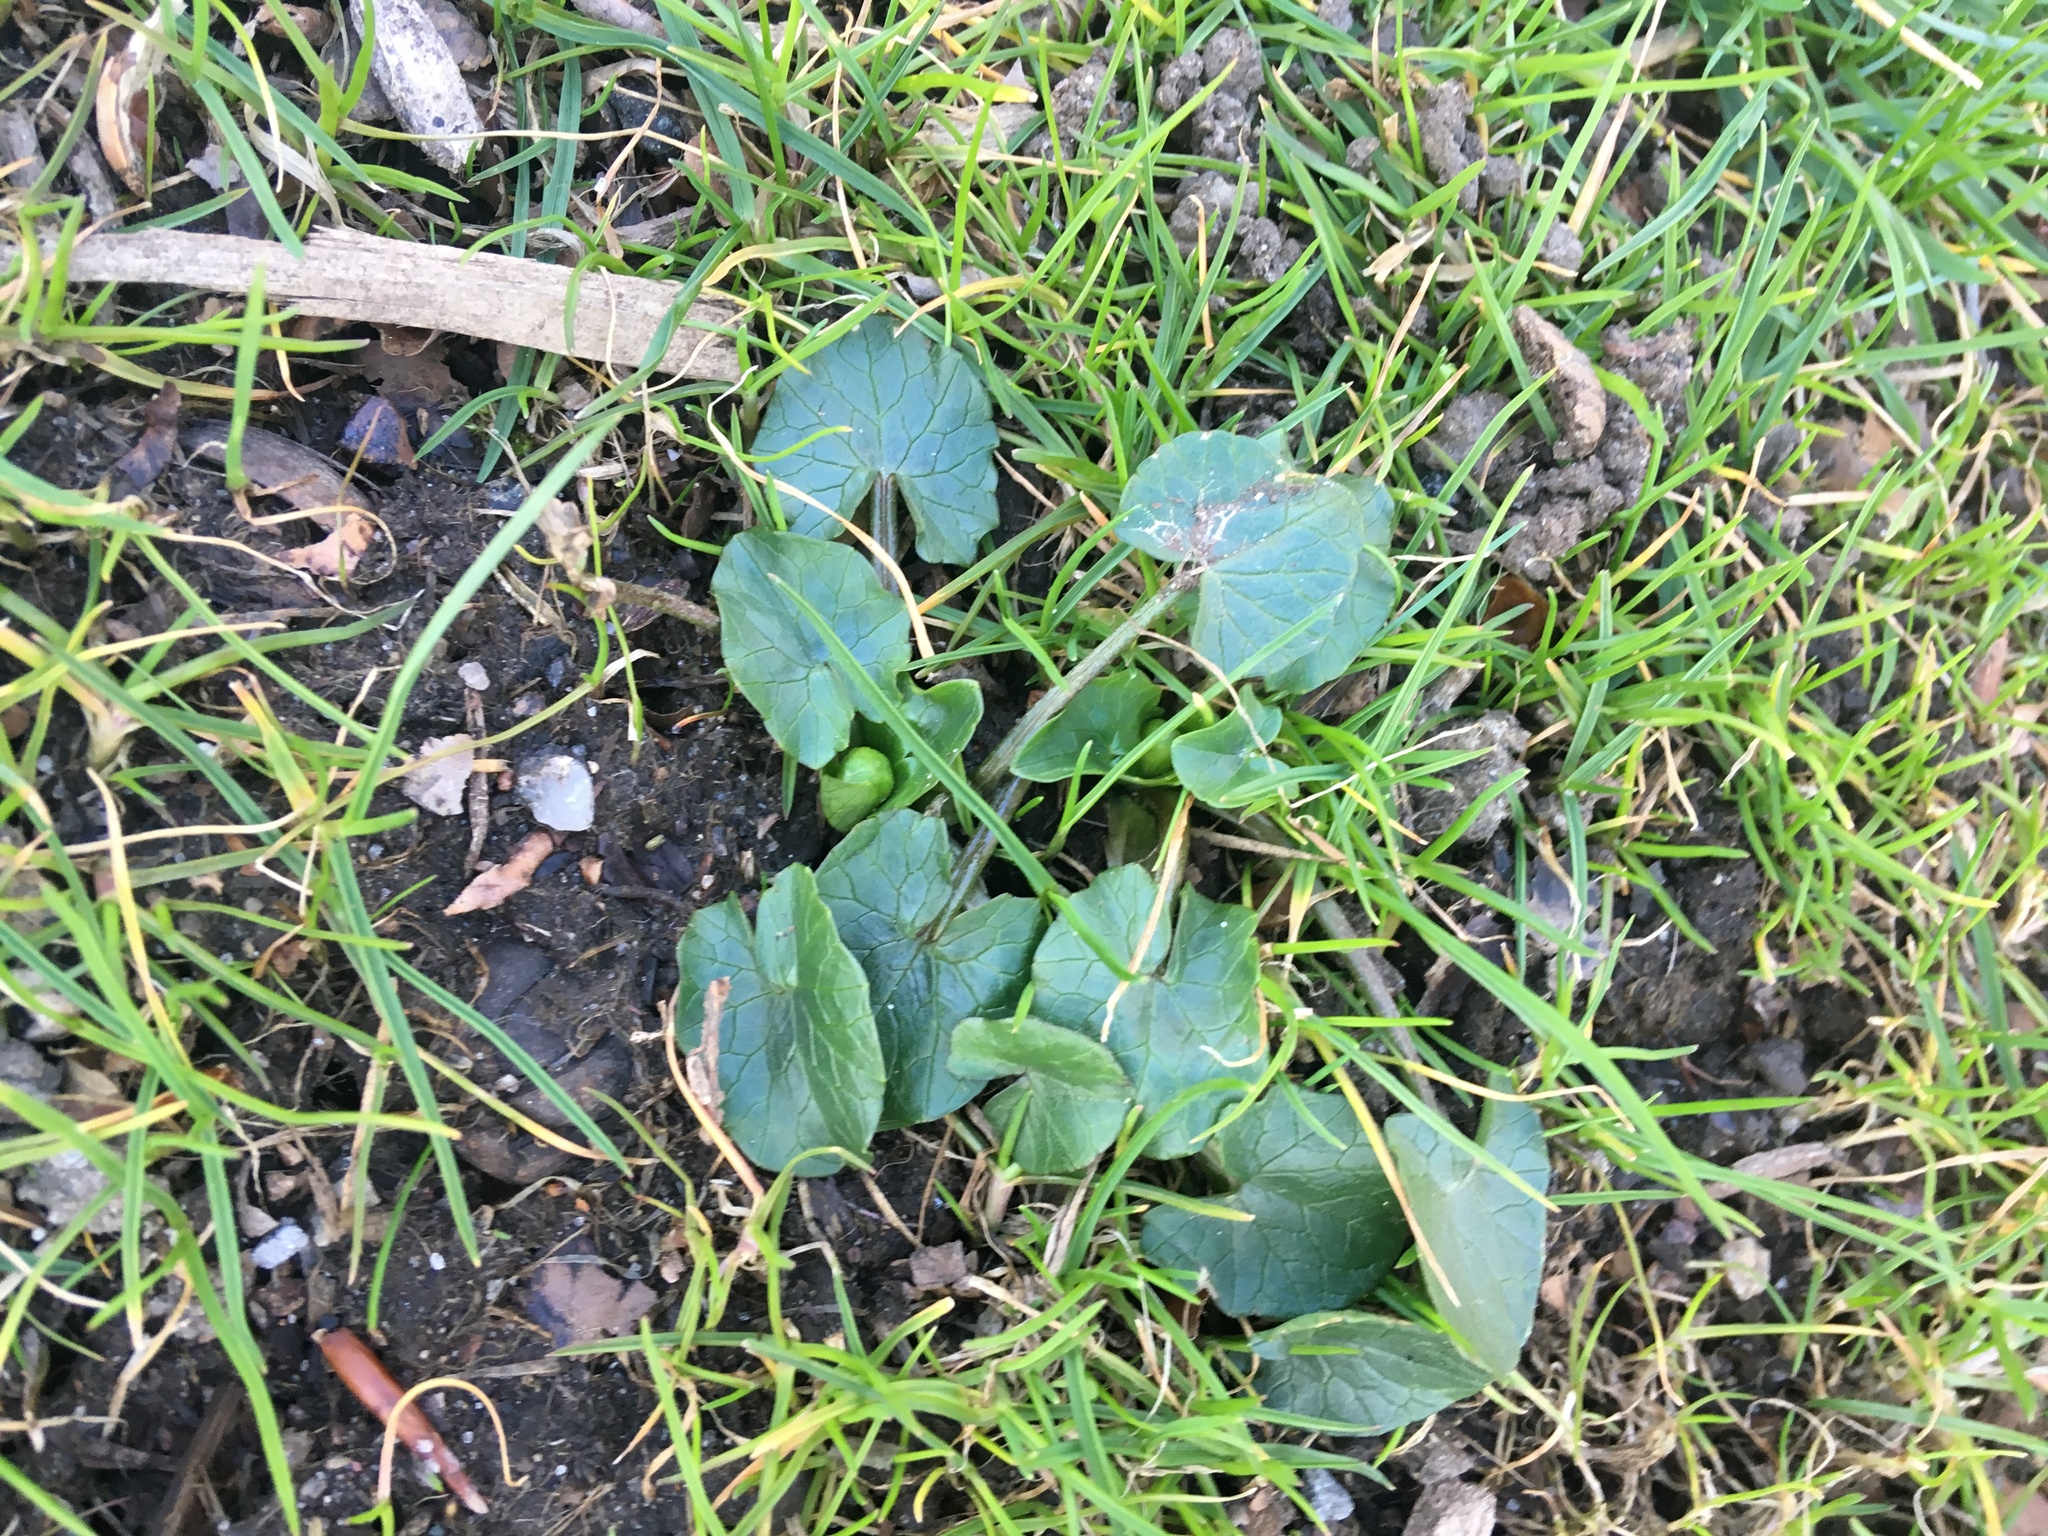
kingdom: Plantae
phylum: Tracheophyta
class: Magnoliopsida
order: Ranunculales
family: Ranunculaceae
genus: Ficaria
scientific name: Ficaria verna
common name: Lesser celandine
